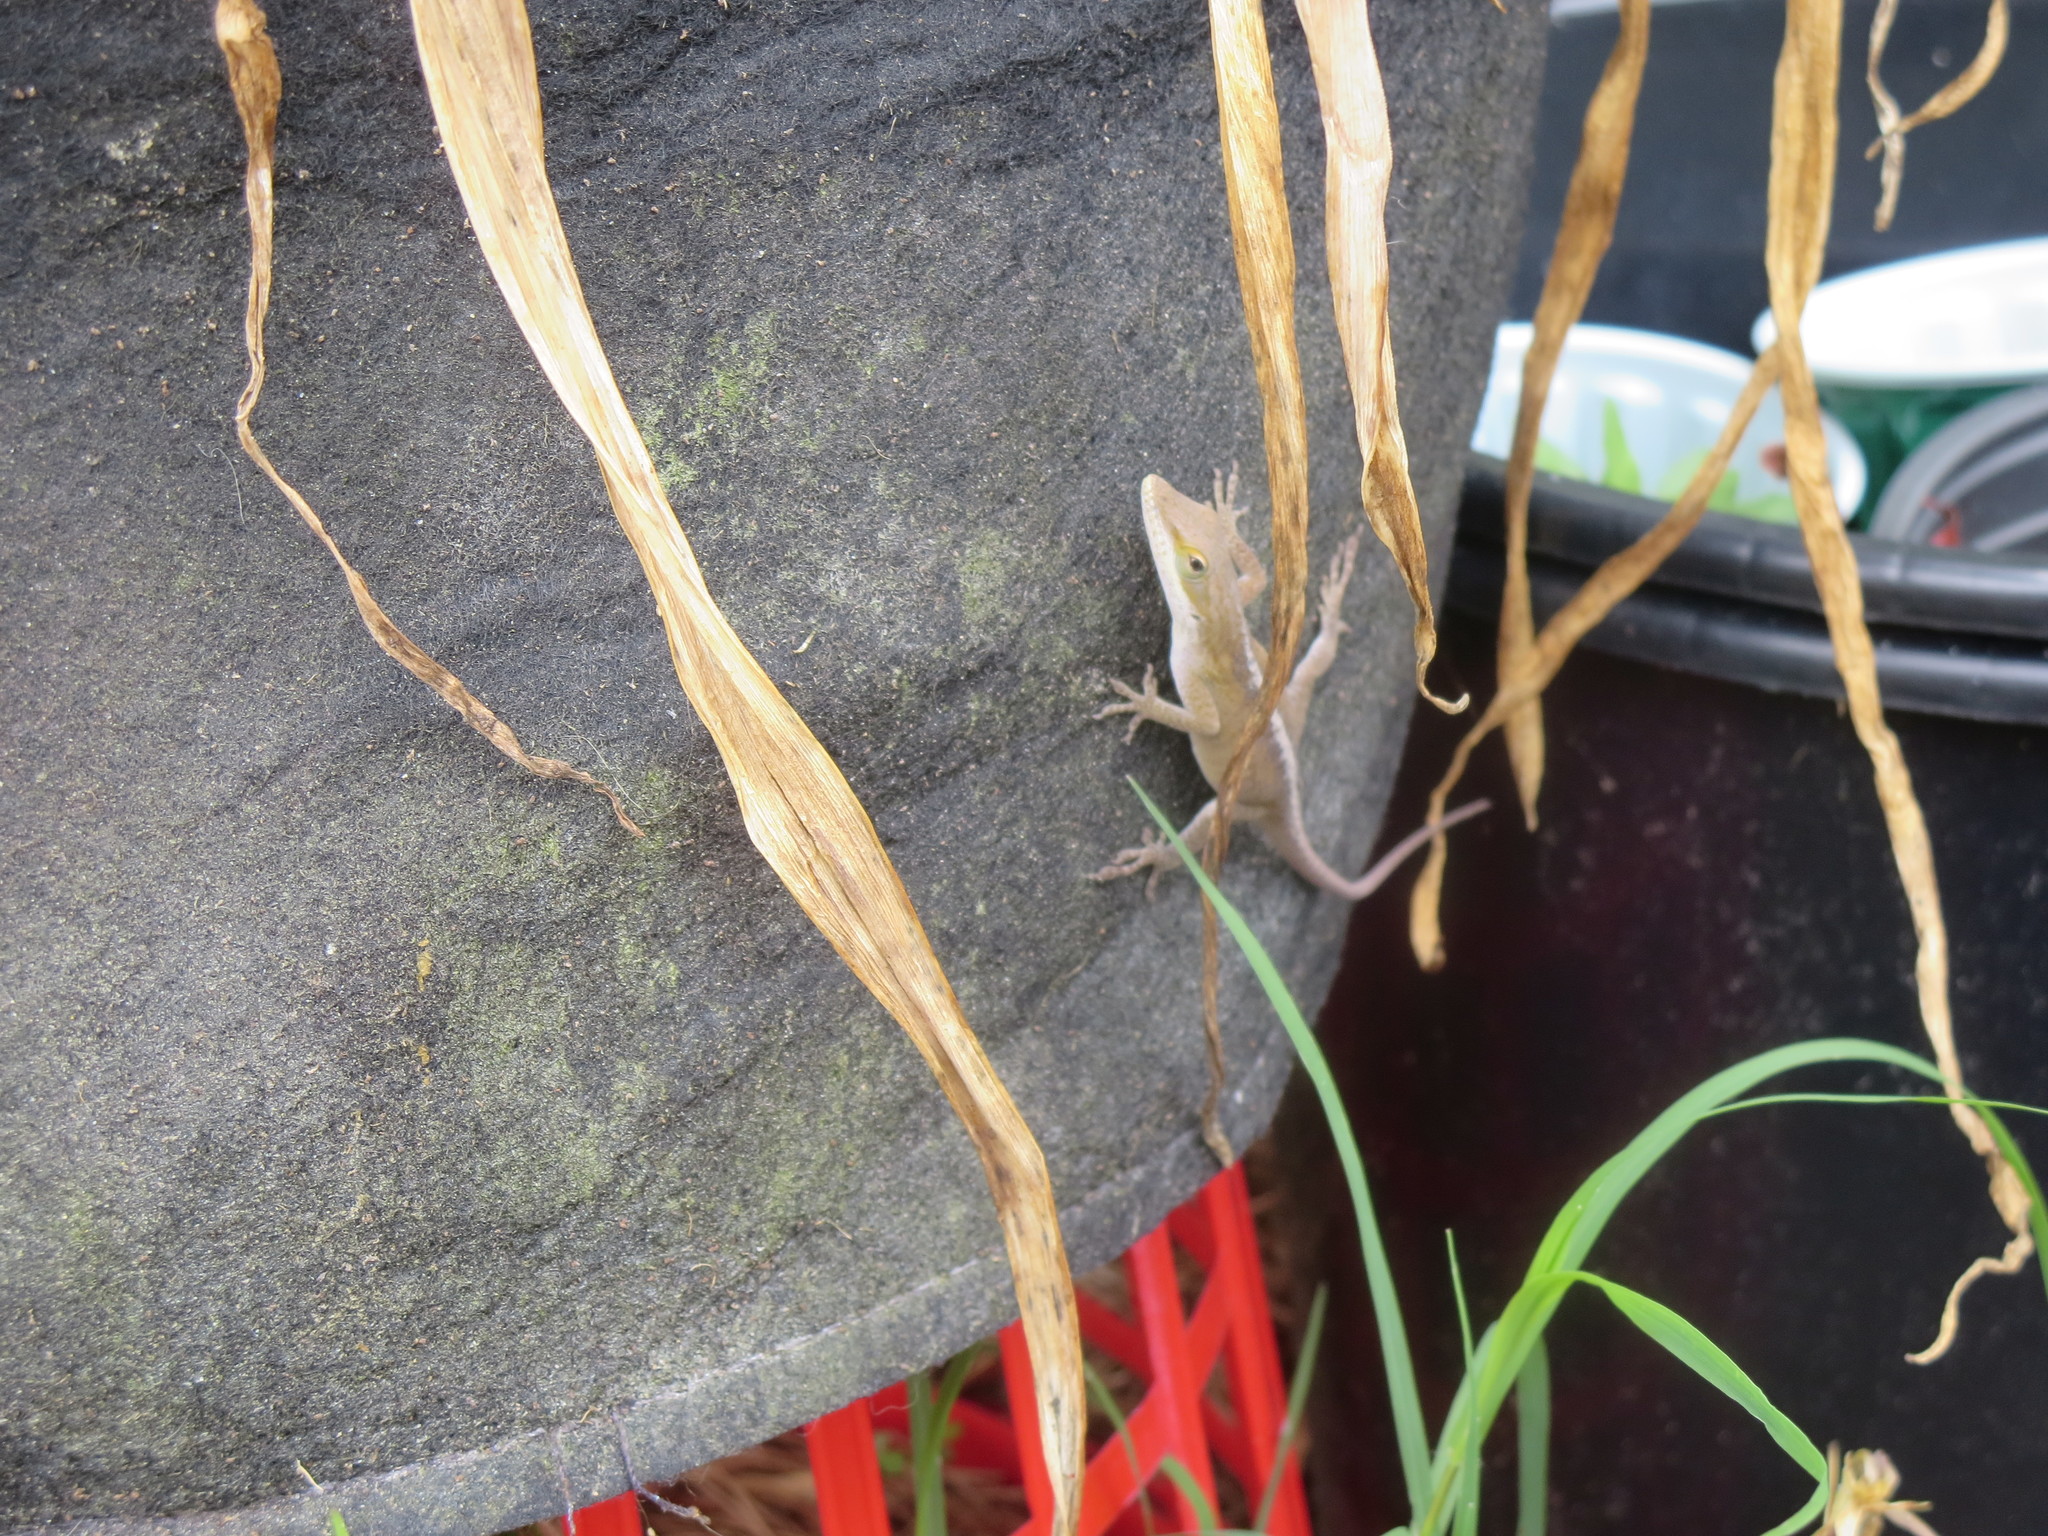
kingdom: Animalia
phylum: Chordata
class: Squamata
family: Dactyloidae
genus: Anolis
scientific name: Anolis carolinensis
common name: Green anole
